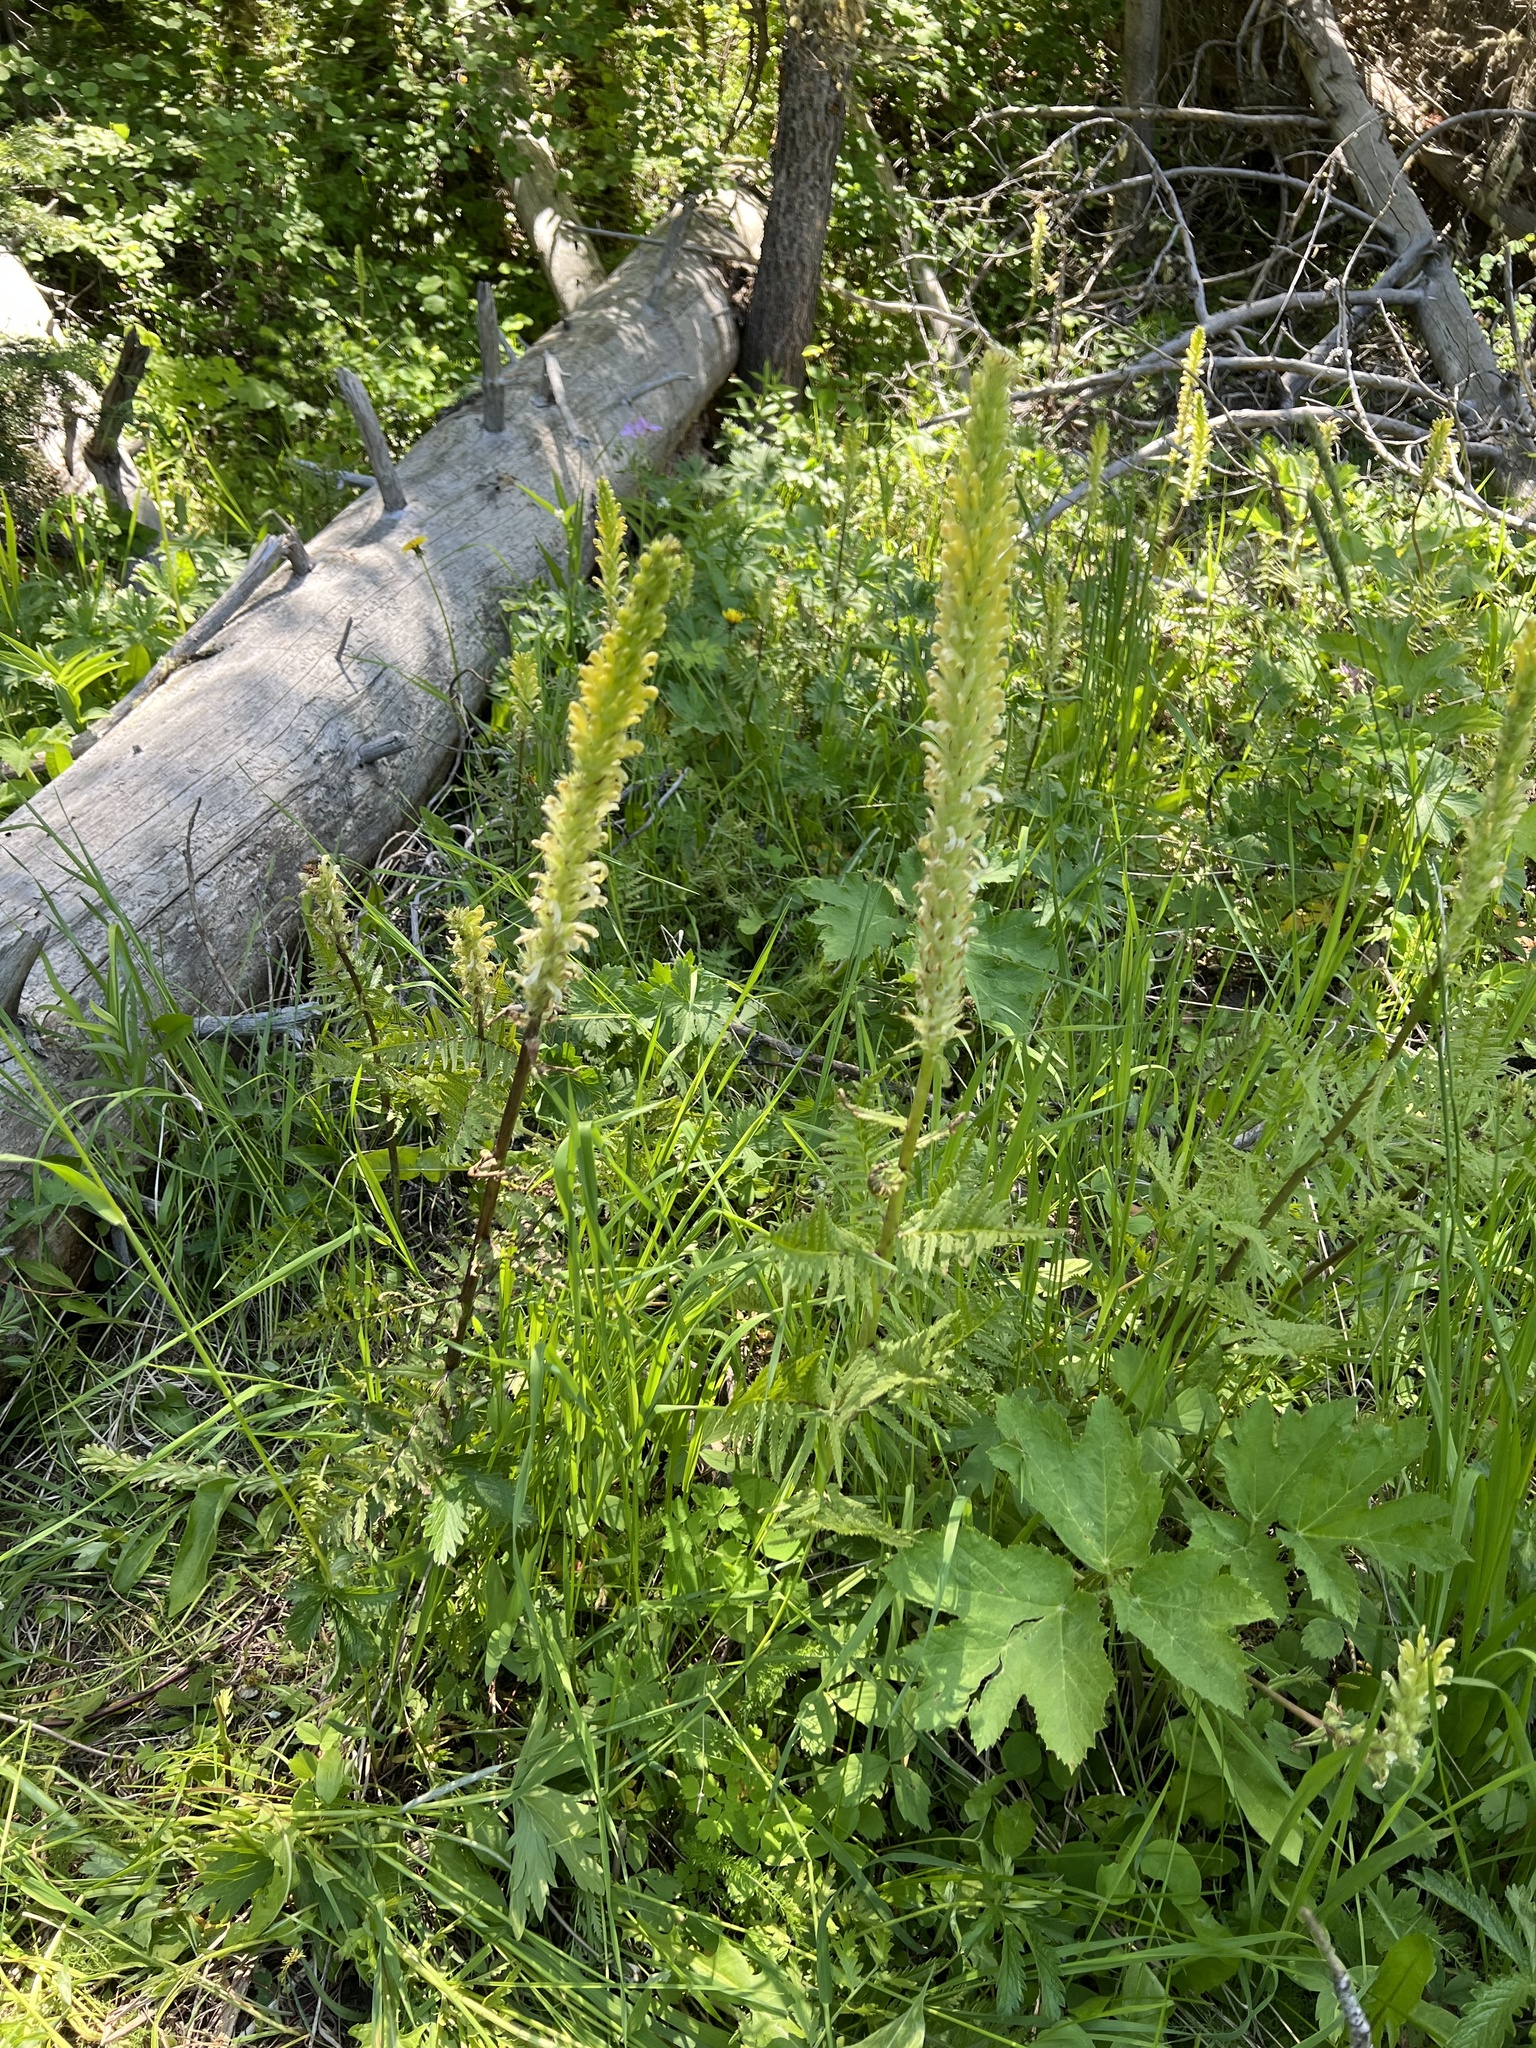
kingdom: Plantae
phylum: Tracheophyta
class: Magnoliopsida
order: Lamiales
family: Orobanchaceae
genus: Pedicularis
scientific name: Pedicularis bracteosa
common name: Bracted lousewort
